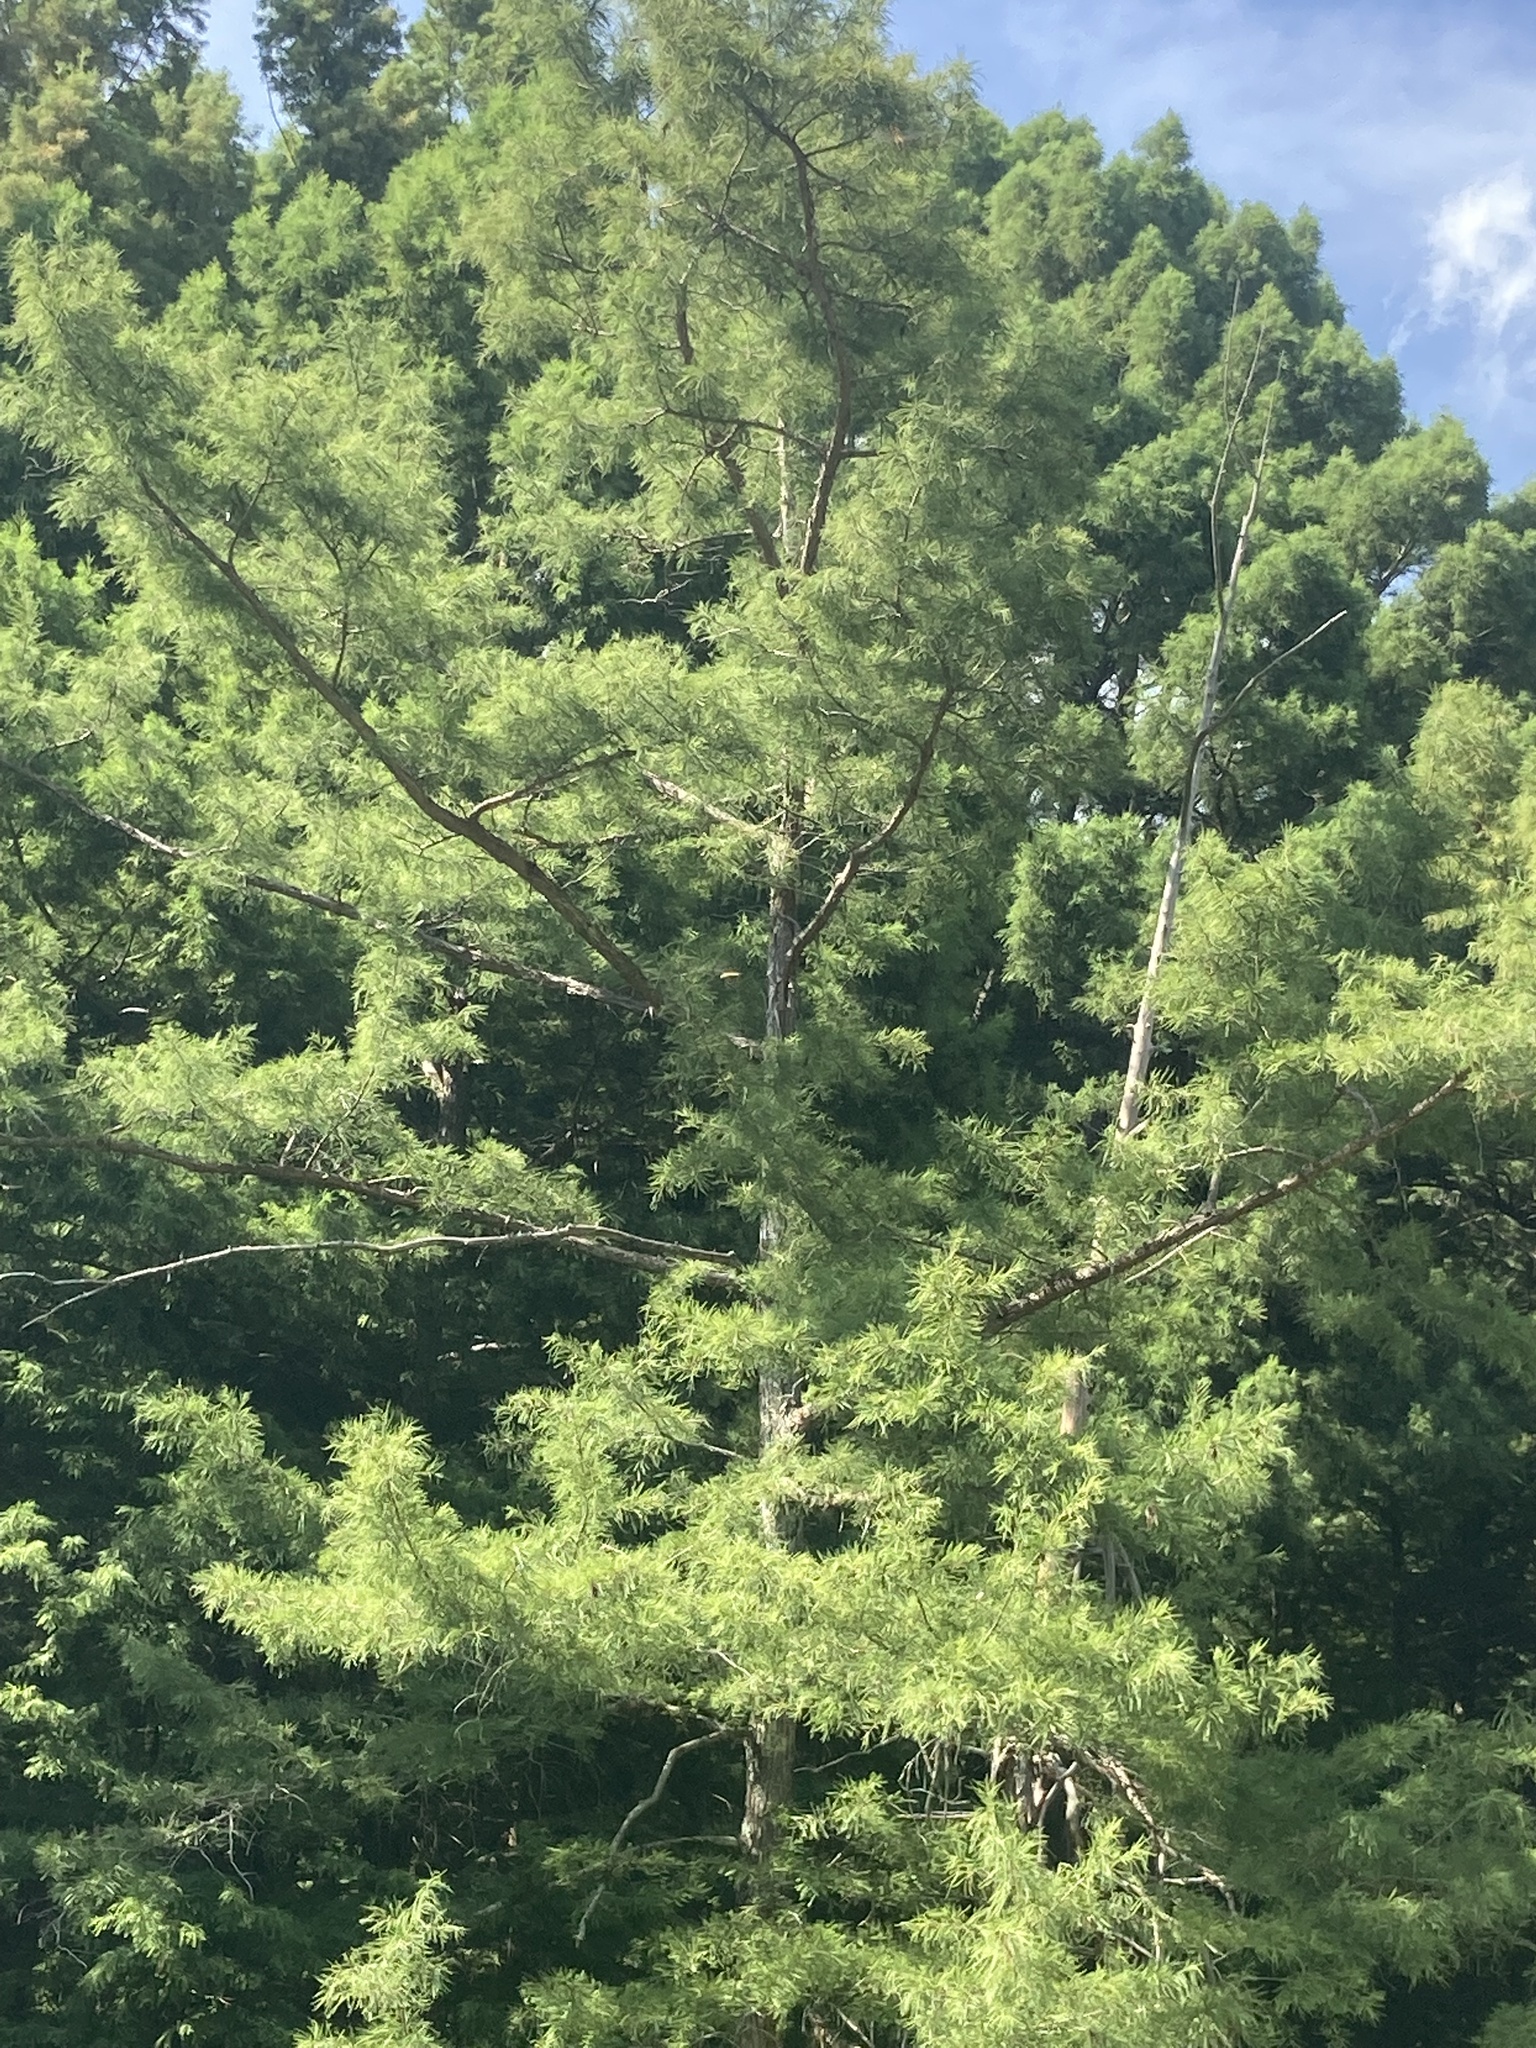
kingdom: Plantae
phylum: Tracheophyta
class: Pinopsida
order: Pinales
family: Cupressaceae
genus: Taxodium
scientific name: Taxodium distichum
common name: Bald cypress
